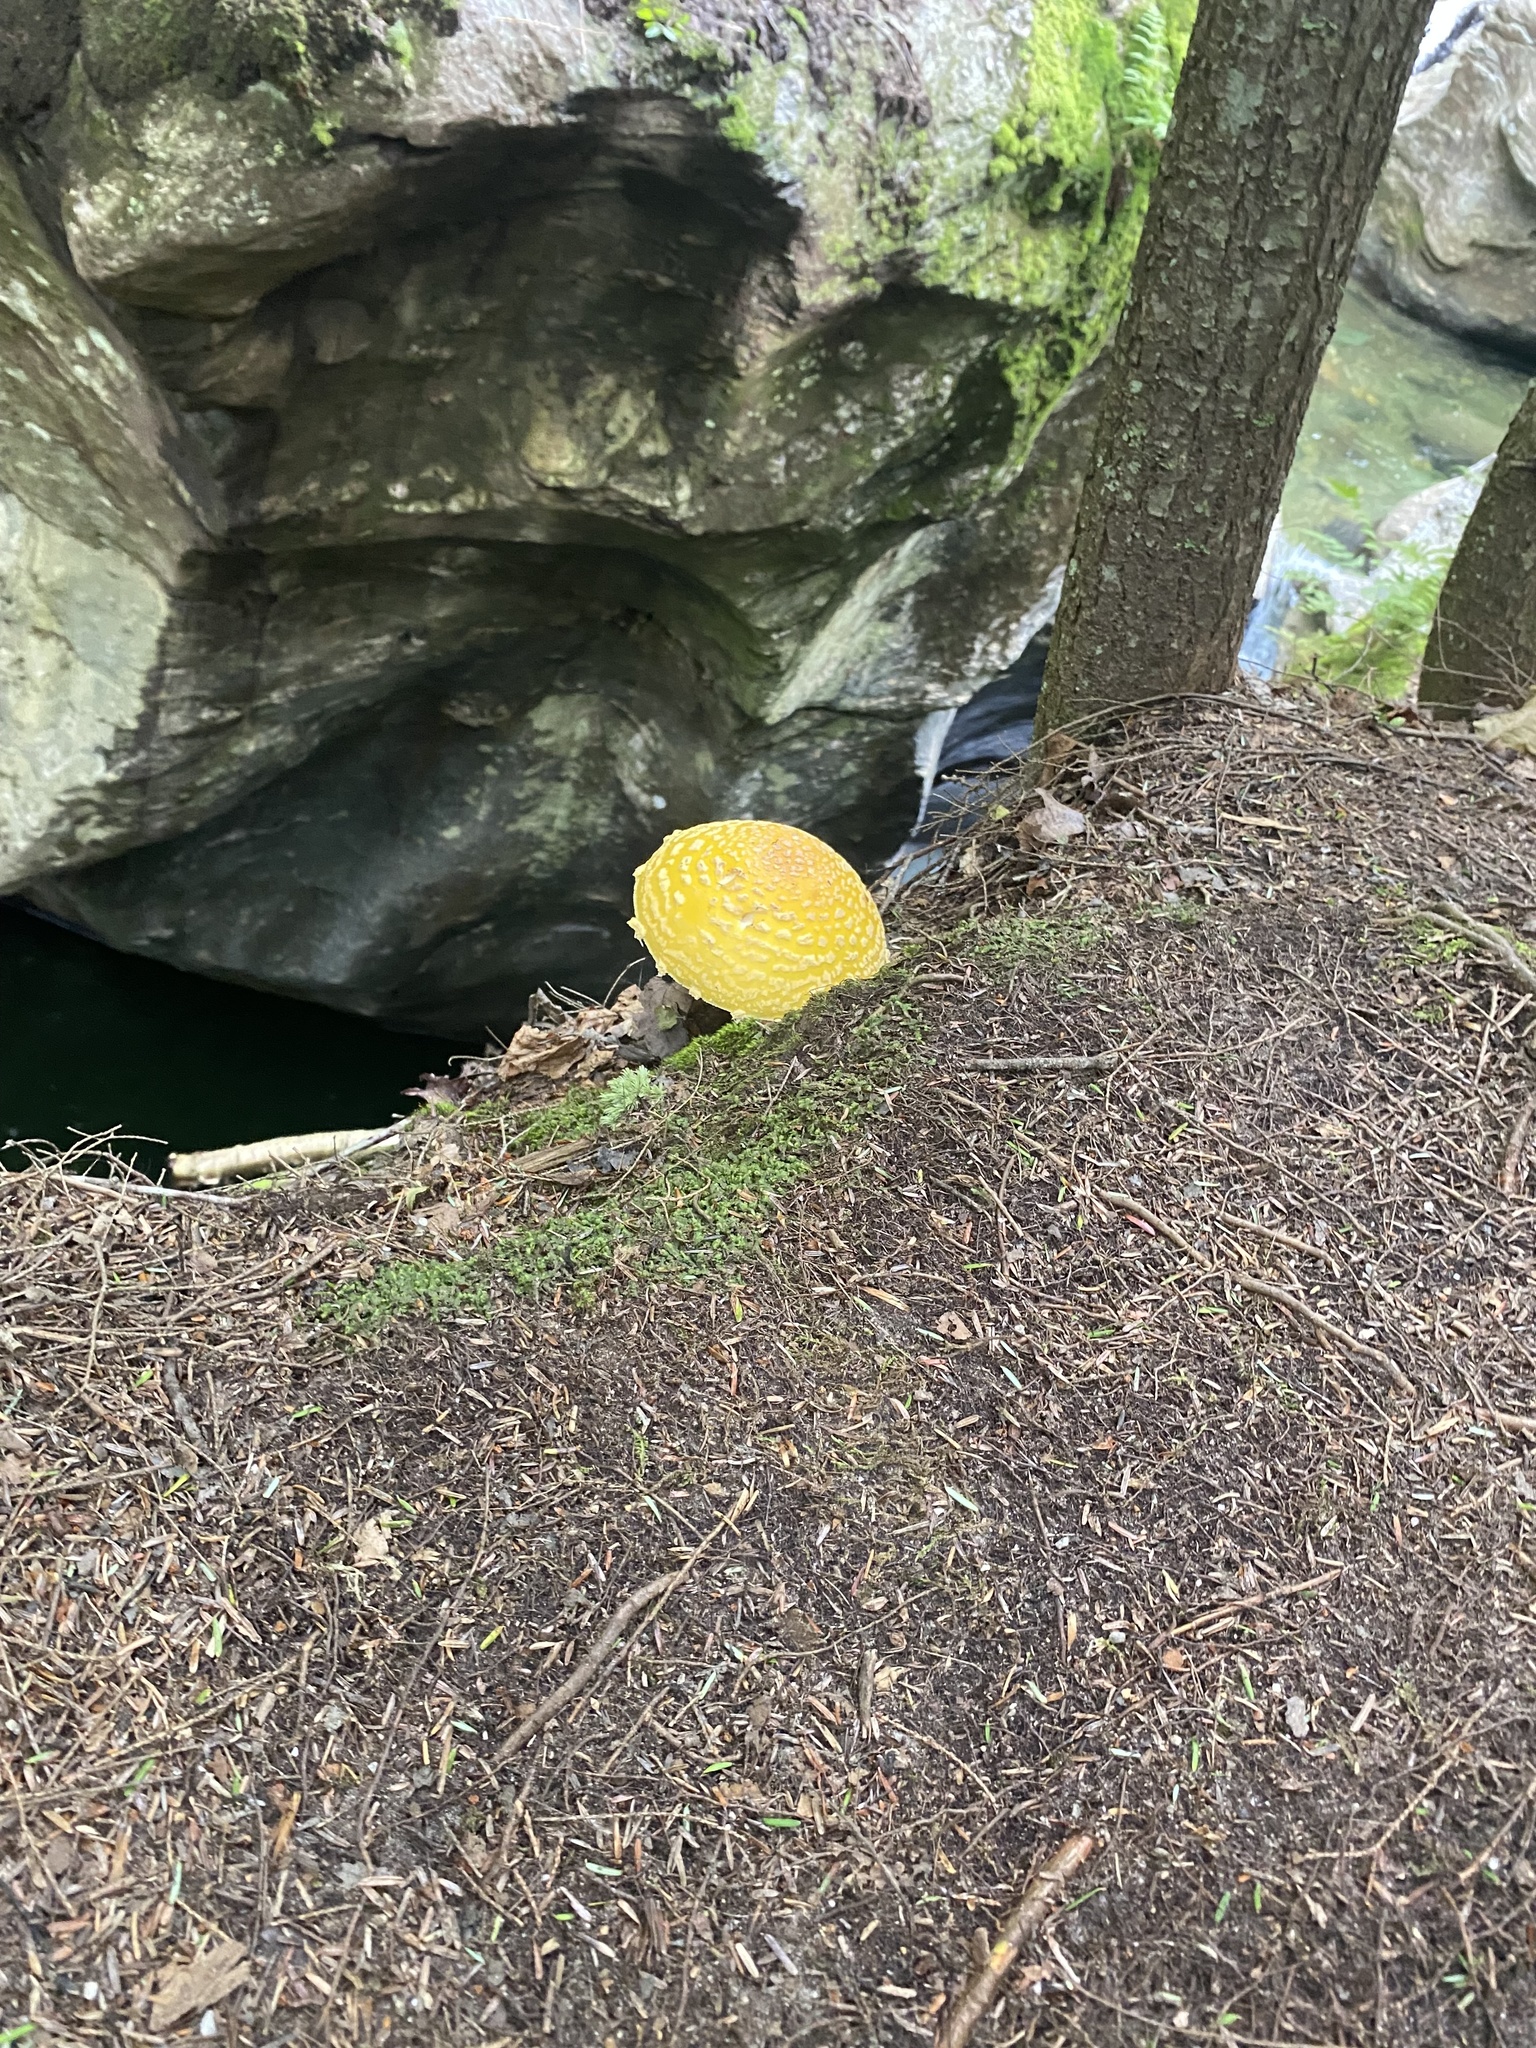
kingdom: Fungi
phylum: Basidiomycota
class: Agaricomycetes
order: Agaricales
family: Amanitaceae
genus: Amanita
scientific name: Amanita muscaria
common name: Fly agaric
